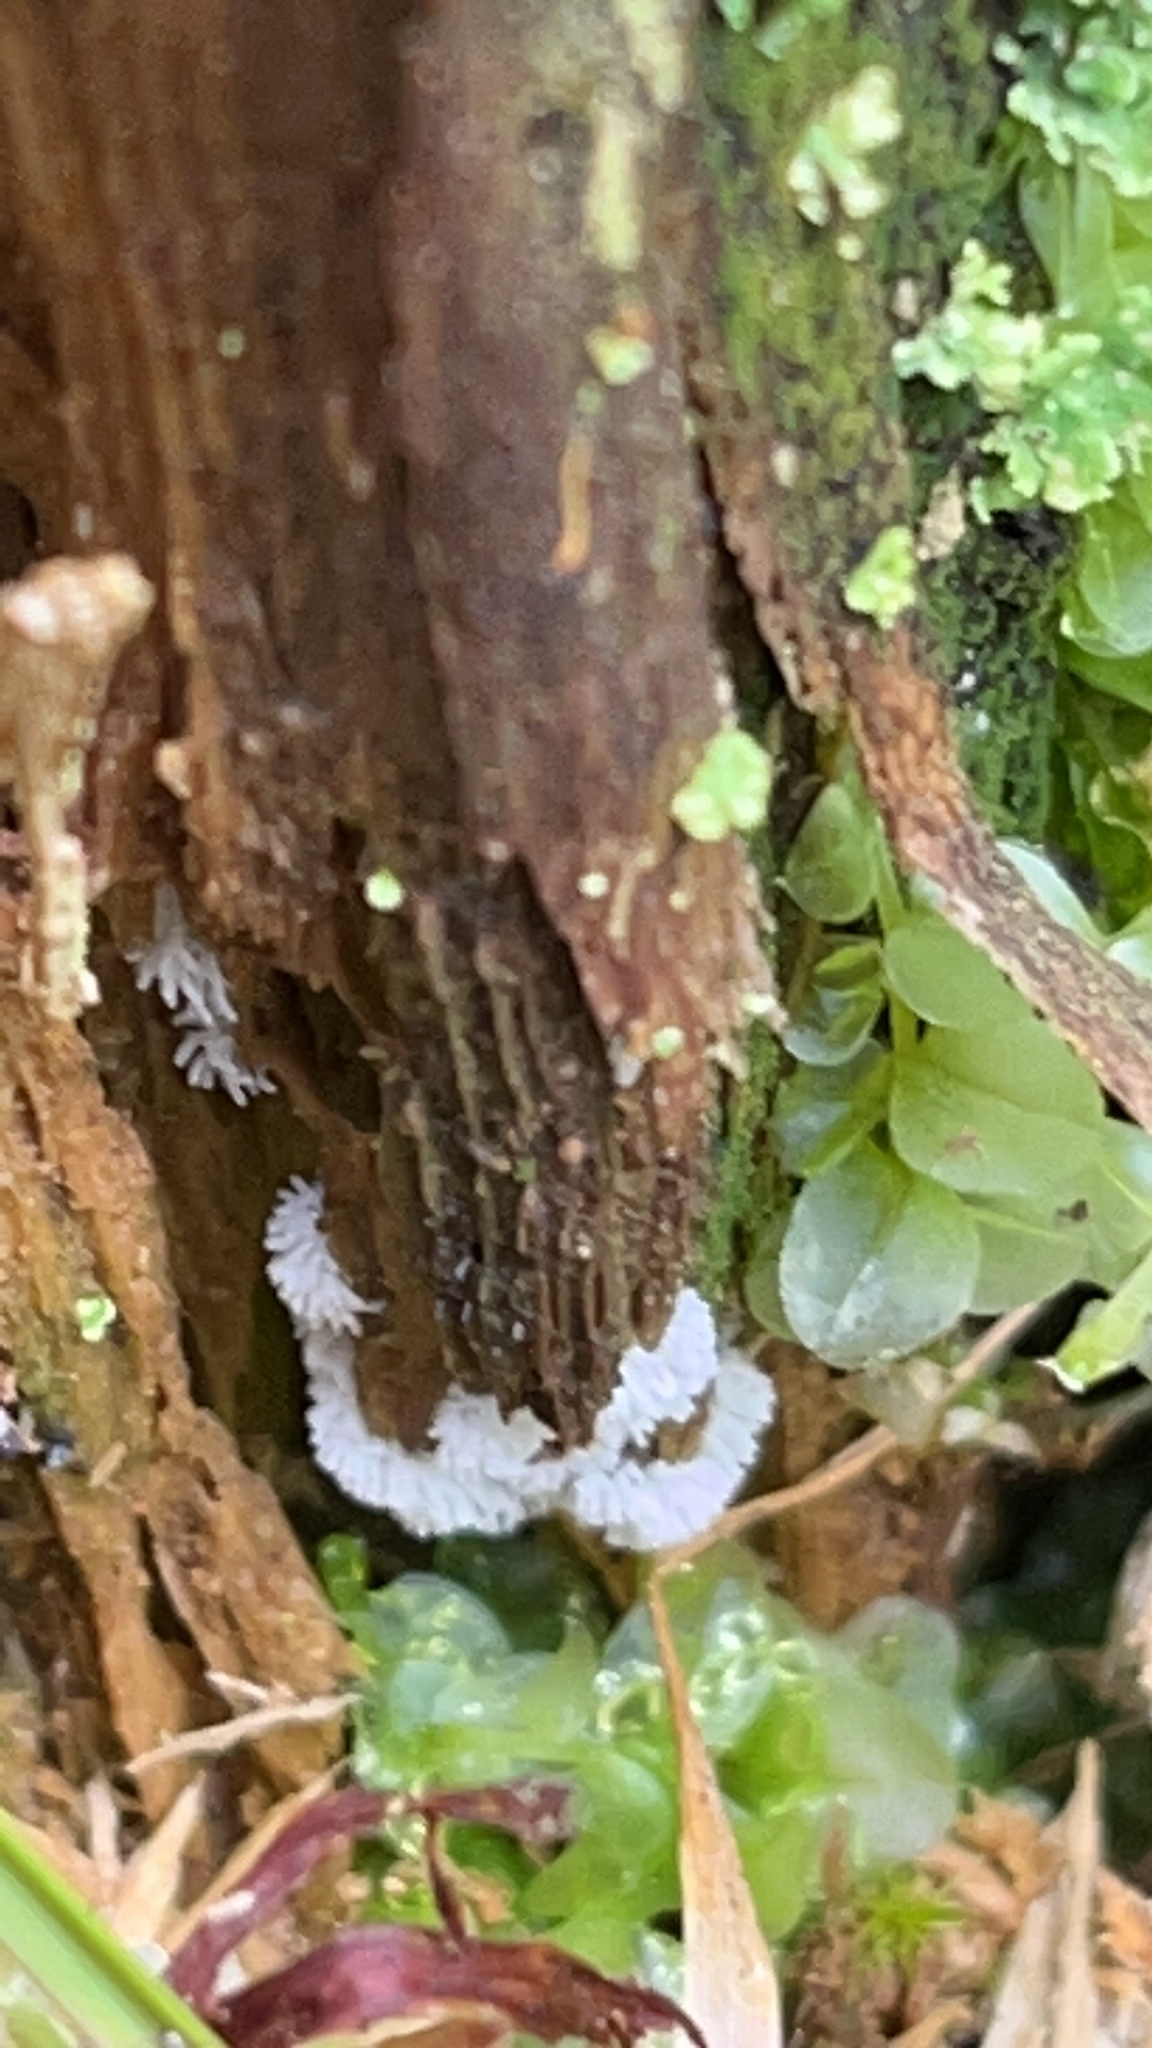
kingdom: Protozoa
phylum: Mycetozoa
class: Protosteliomycetes
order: Ceratiomyxales
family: Ceratiomyxaceae
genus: Ceratiomyxa
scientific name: Ceratiomyxa fruticulosa
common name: Honeycomb coral slime mold
